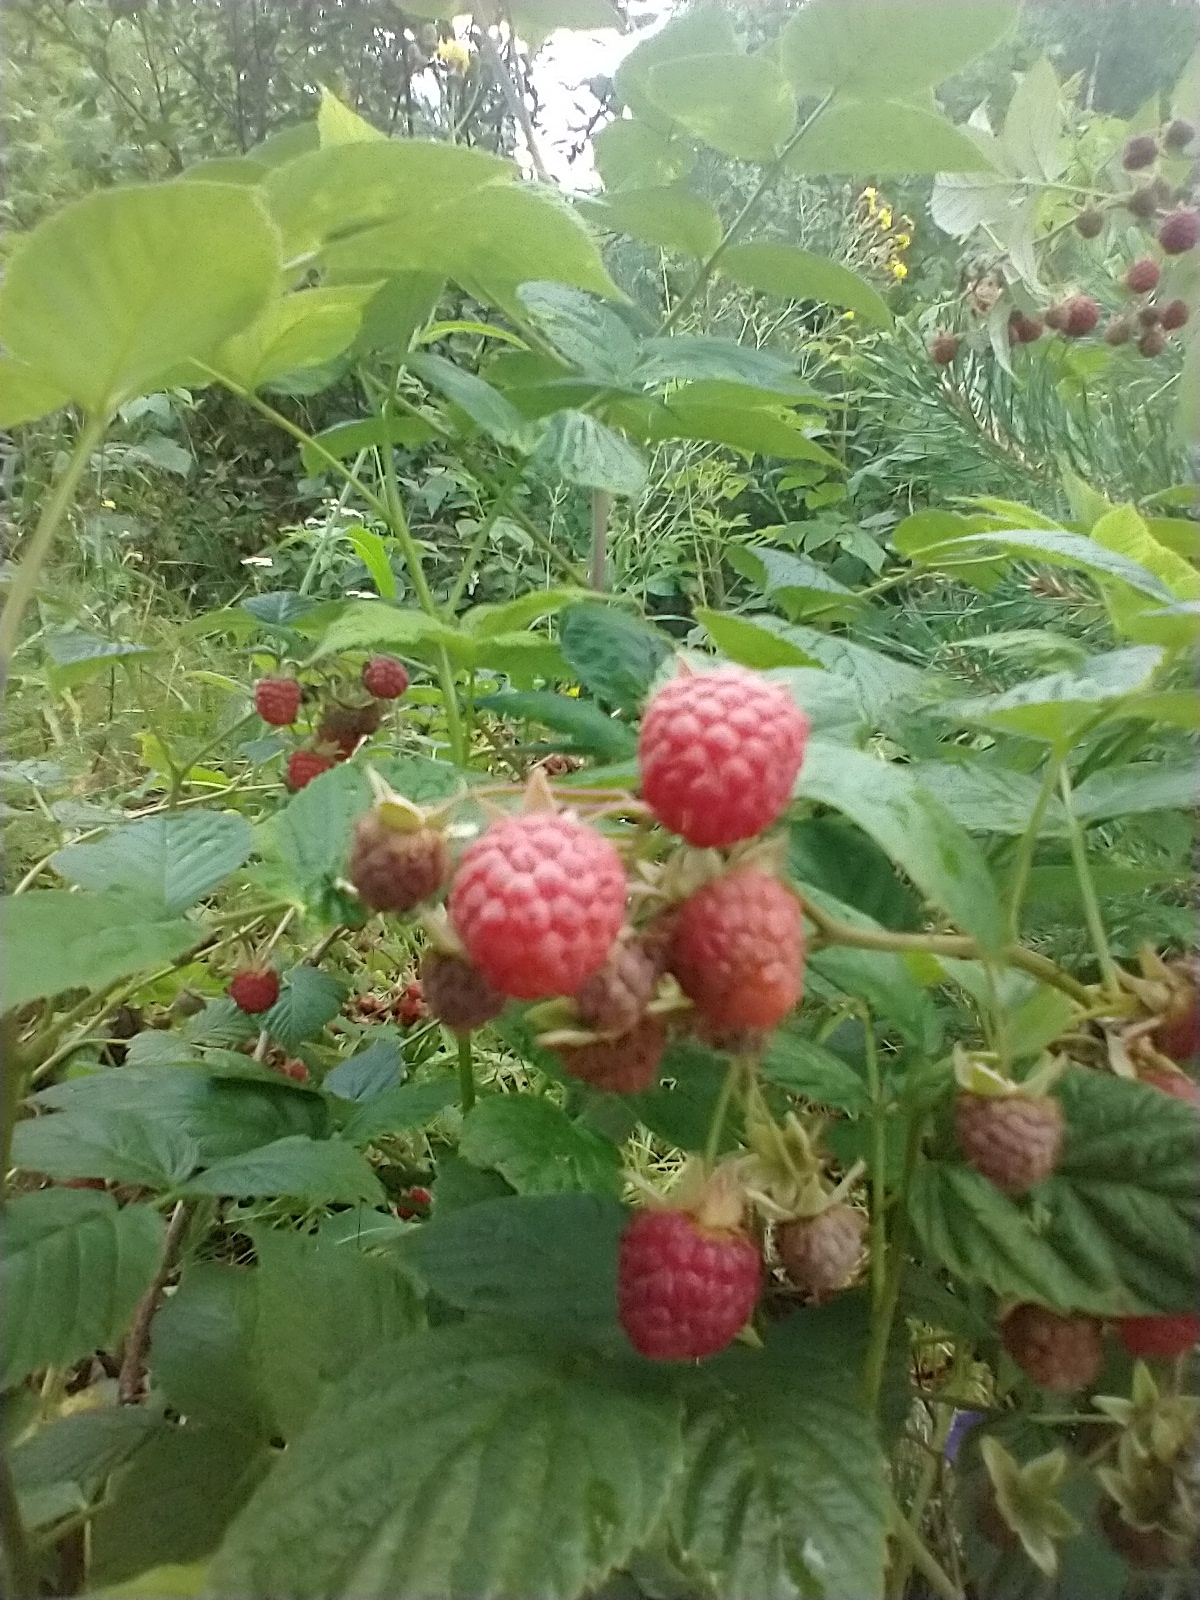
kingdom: Plantae
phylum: Tracheophyta
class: Magnoliopsida
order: Rosales
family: Rosaceae
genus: Rubus
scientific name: Rubus idaeus
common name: Raspberry
